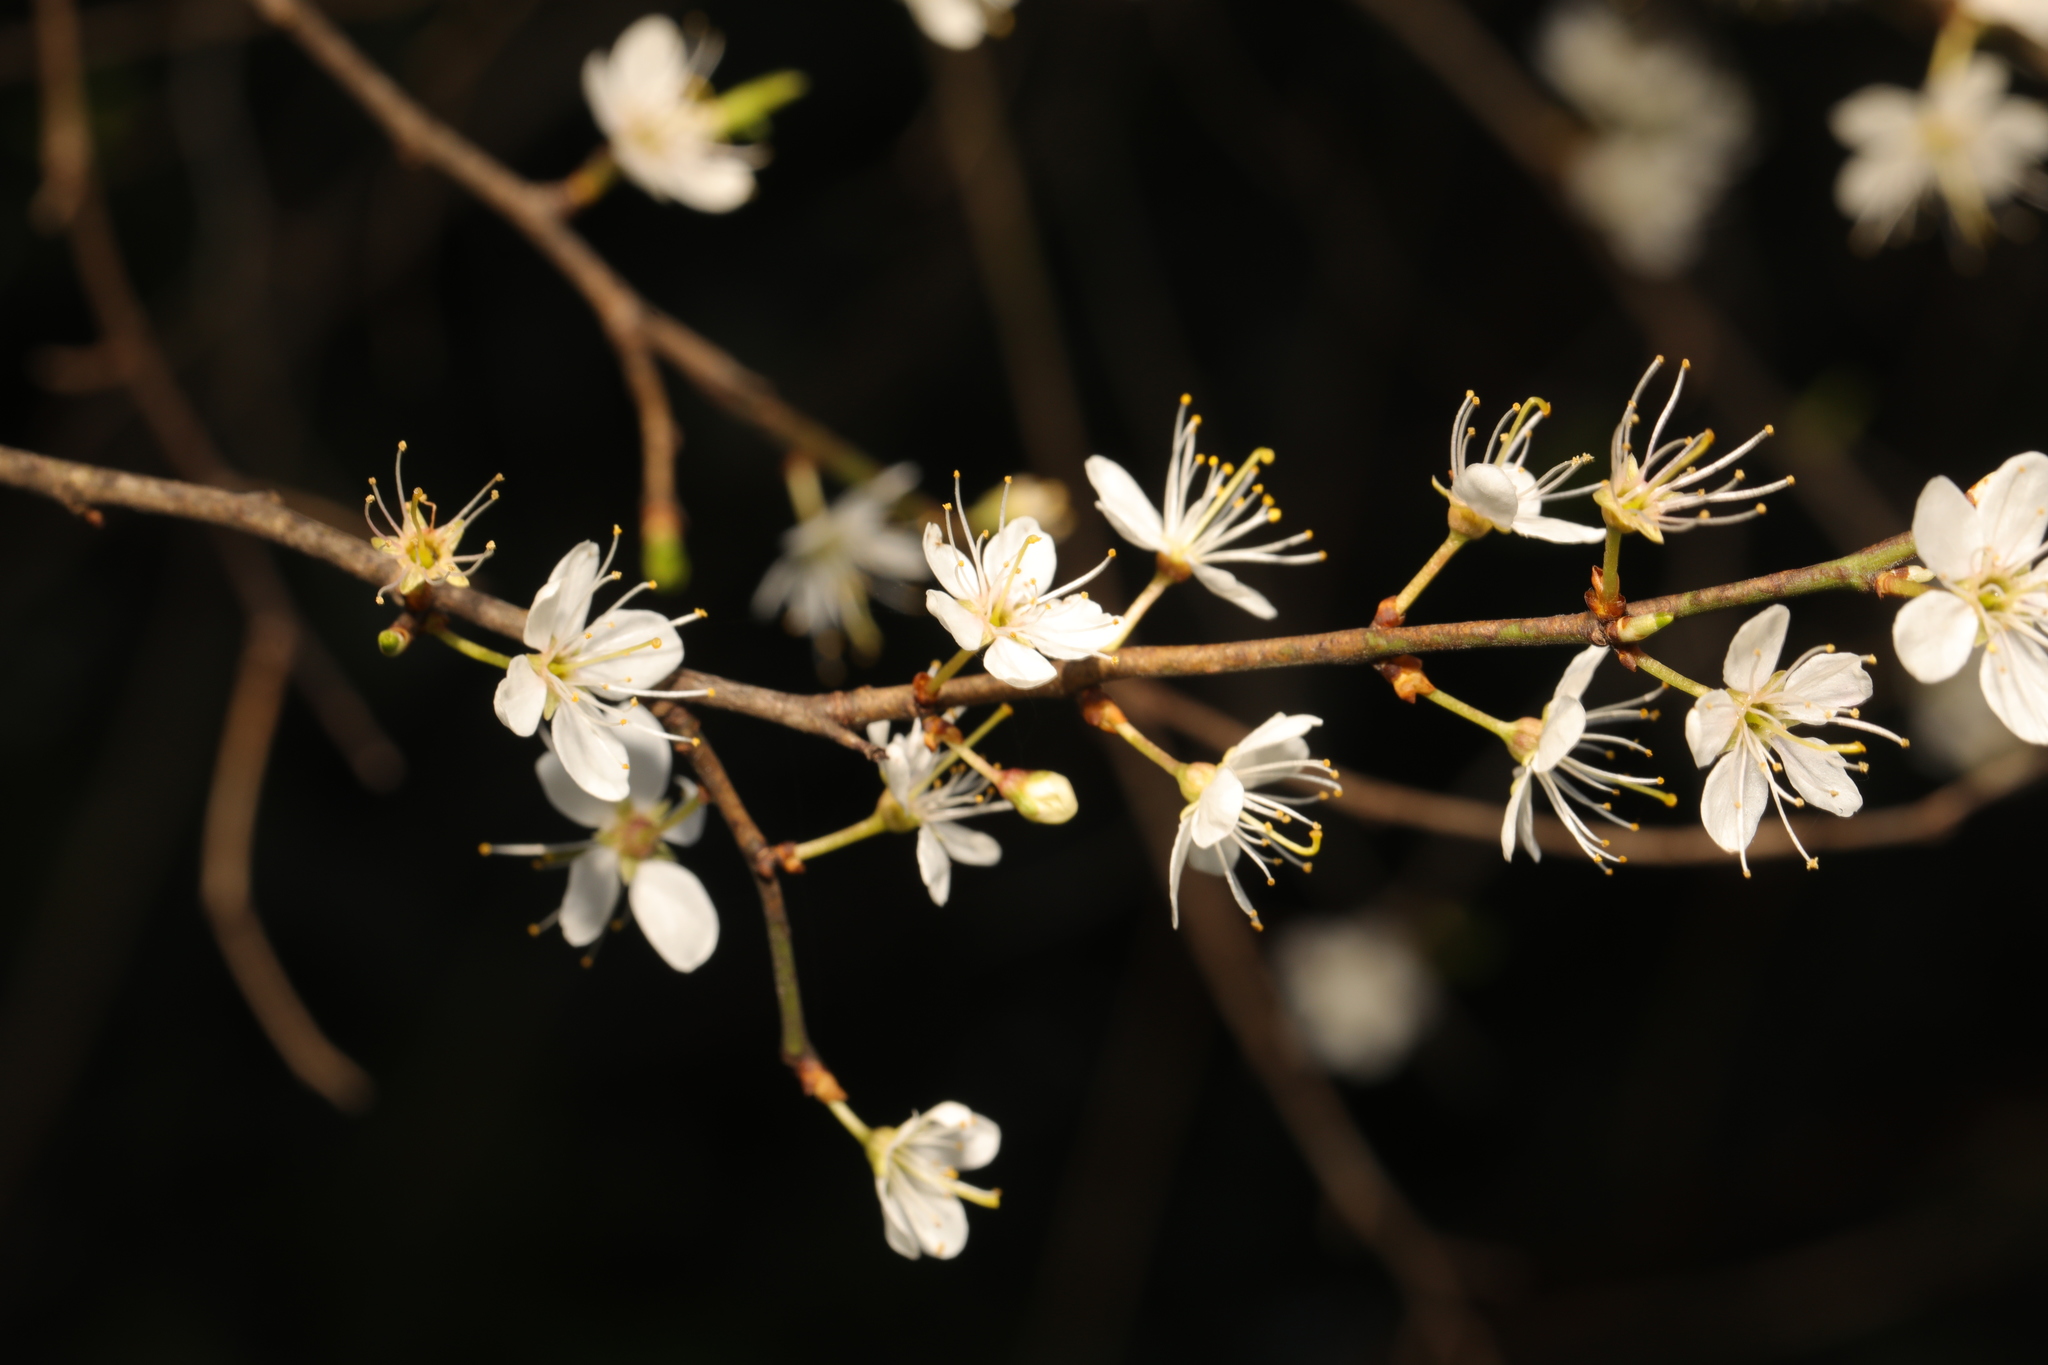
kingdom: Plantae
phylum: Tracheophyta
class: Magnoliopsida
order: Rosales
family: Rosaceae
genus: Prunus
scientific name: Prunus spinosa
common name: Blackthorn
